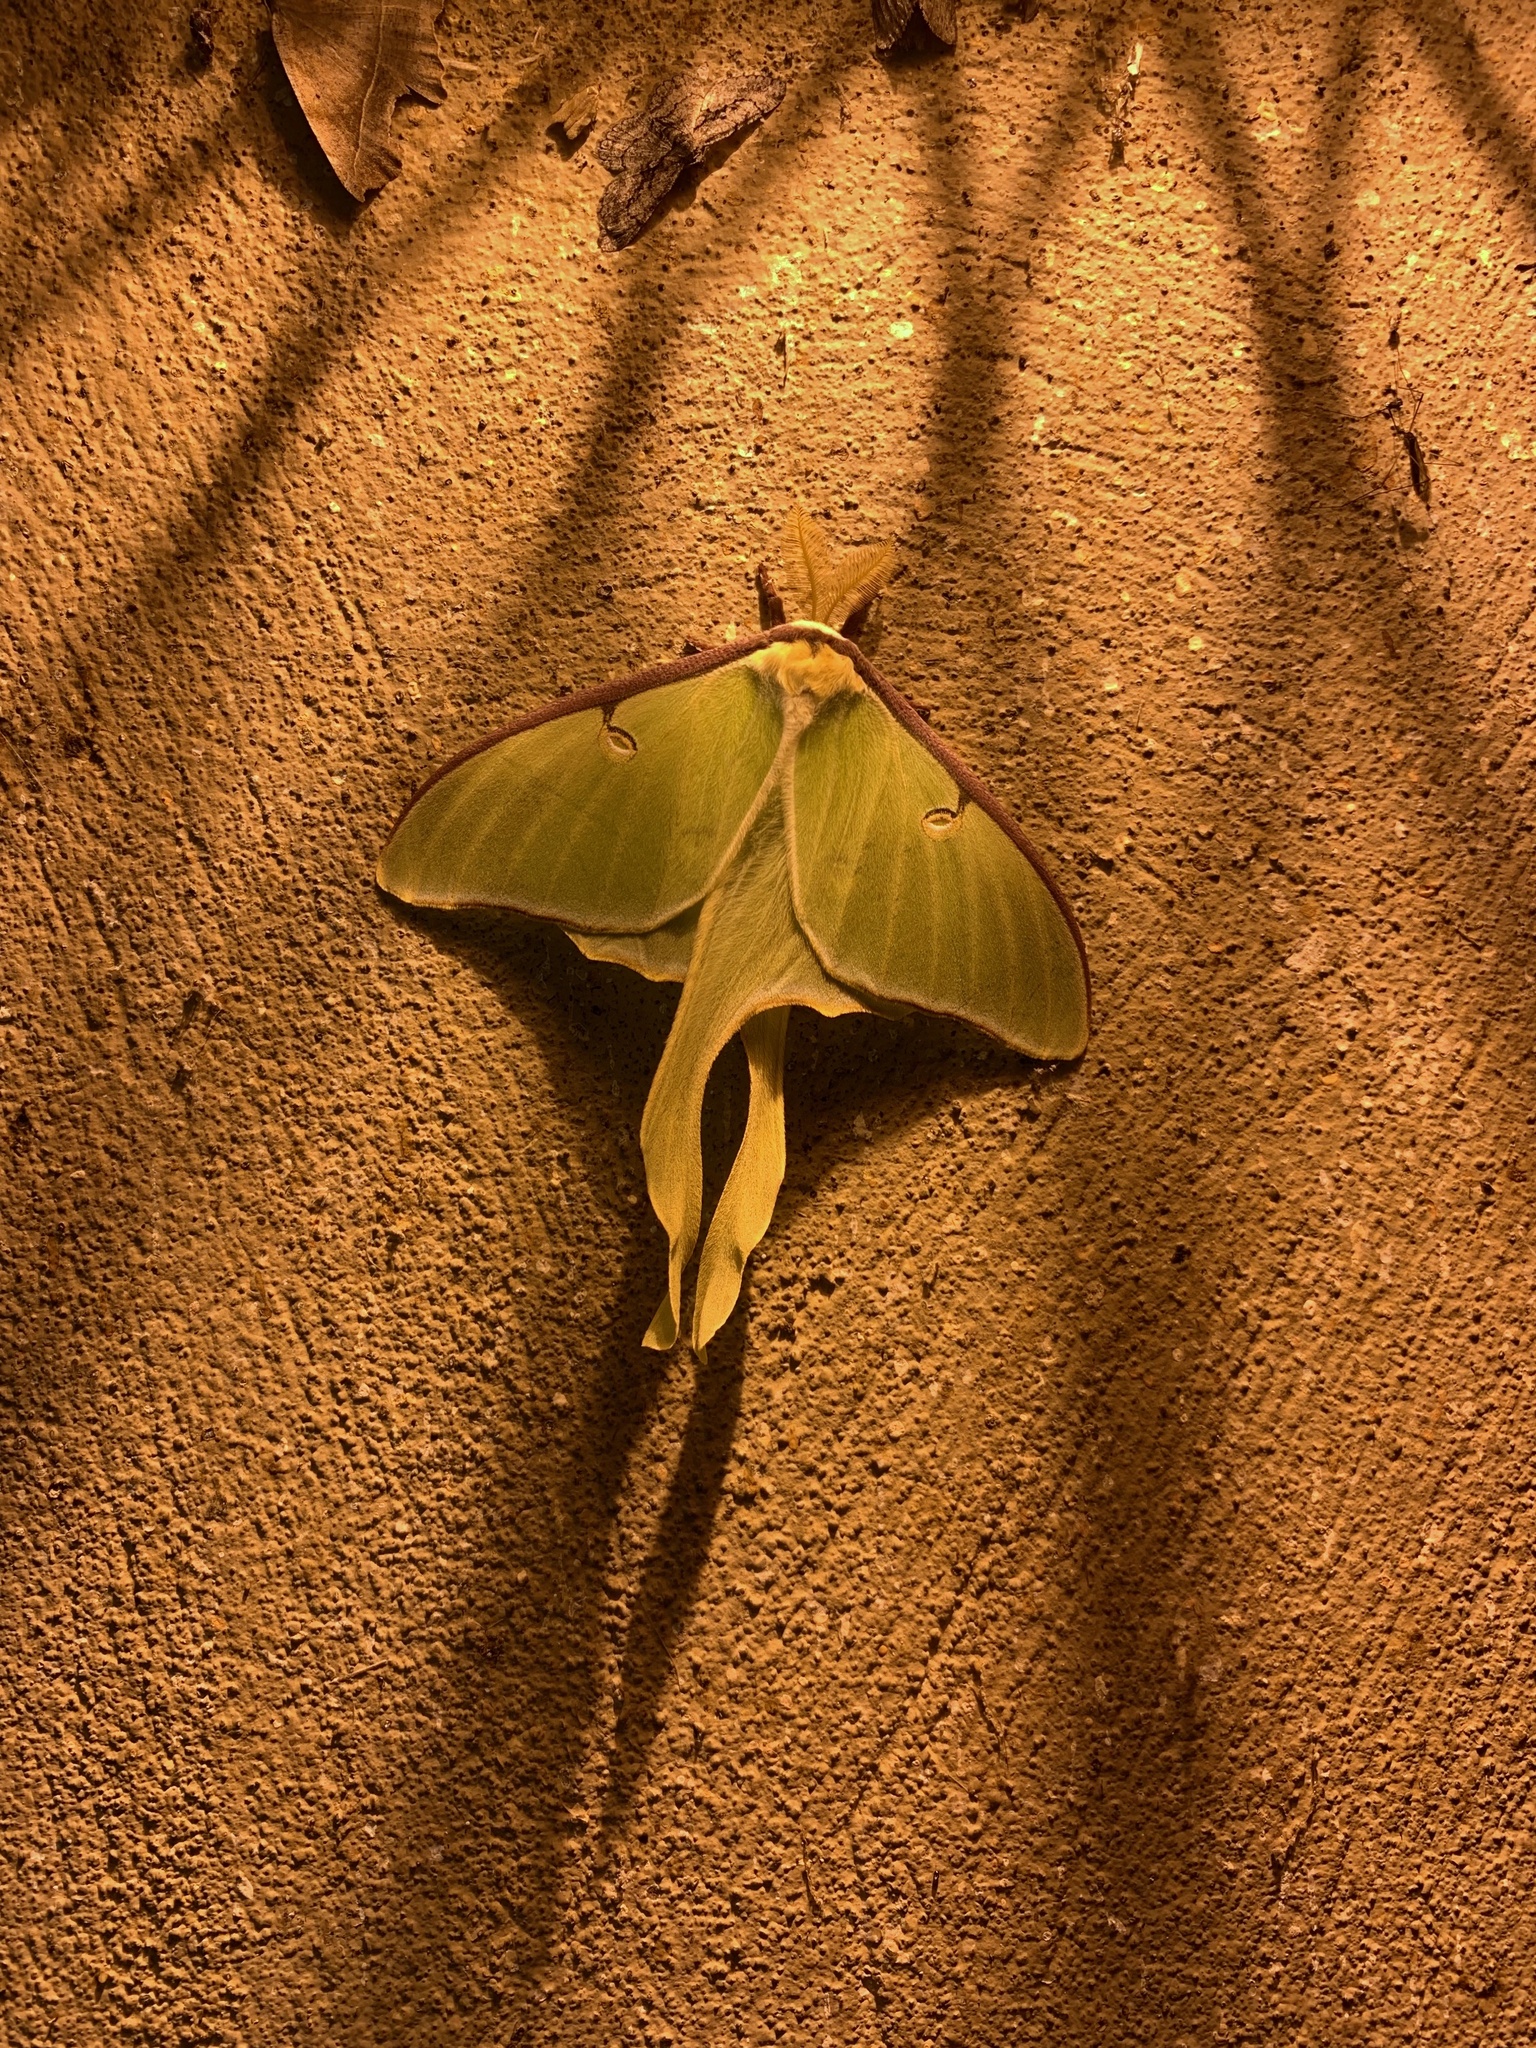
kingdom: Animalia
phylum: Arthropoda
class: Insecta
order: Lepidoptera
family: Saturniidae
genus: Actias
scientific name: Actias luna
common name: Luna moth
